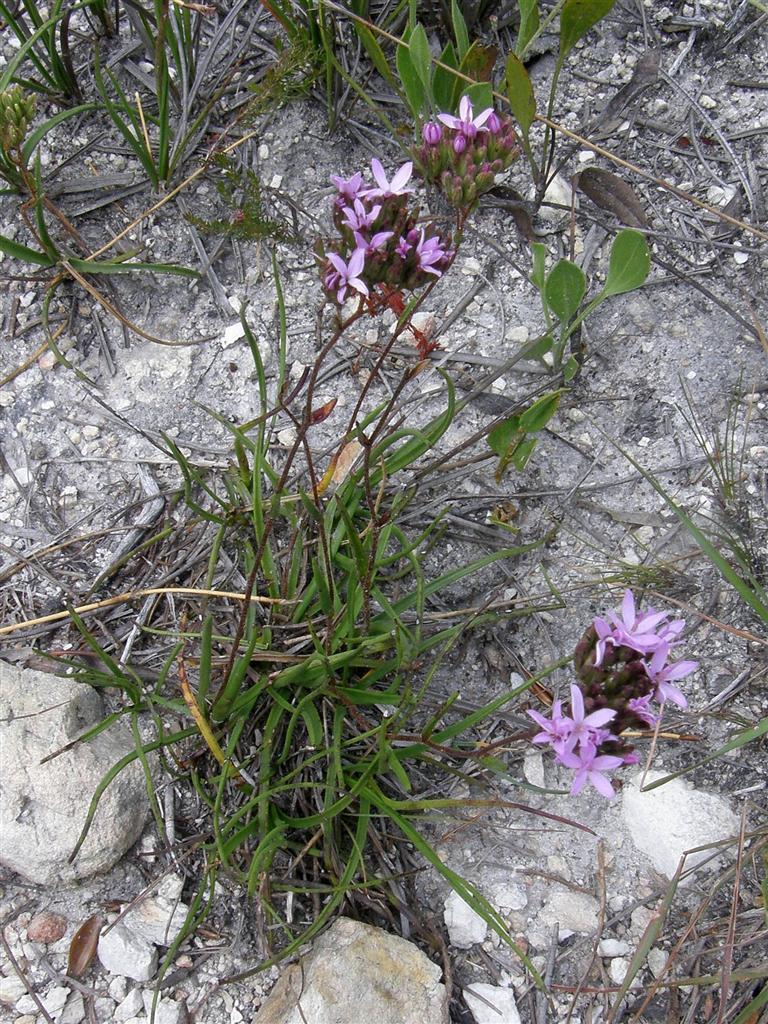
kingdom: Plantae
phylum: Tracheophyta
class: Magnoliopsida
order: Asterales
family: Asteraceae
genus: Corymbium
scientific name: Corymbium africanum
